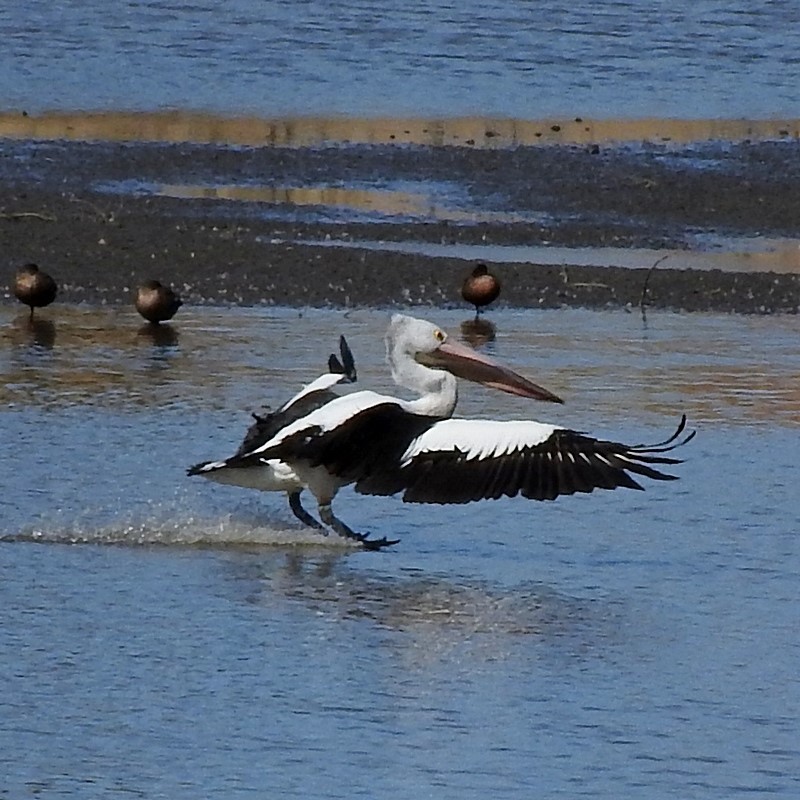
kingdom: Animalia
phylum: Chordata
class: Aves
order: Pelecaniformes
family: Pelecanidae
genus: Pelecanus
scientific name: Pelecanus conspicillatus
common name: Australian pelican
